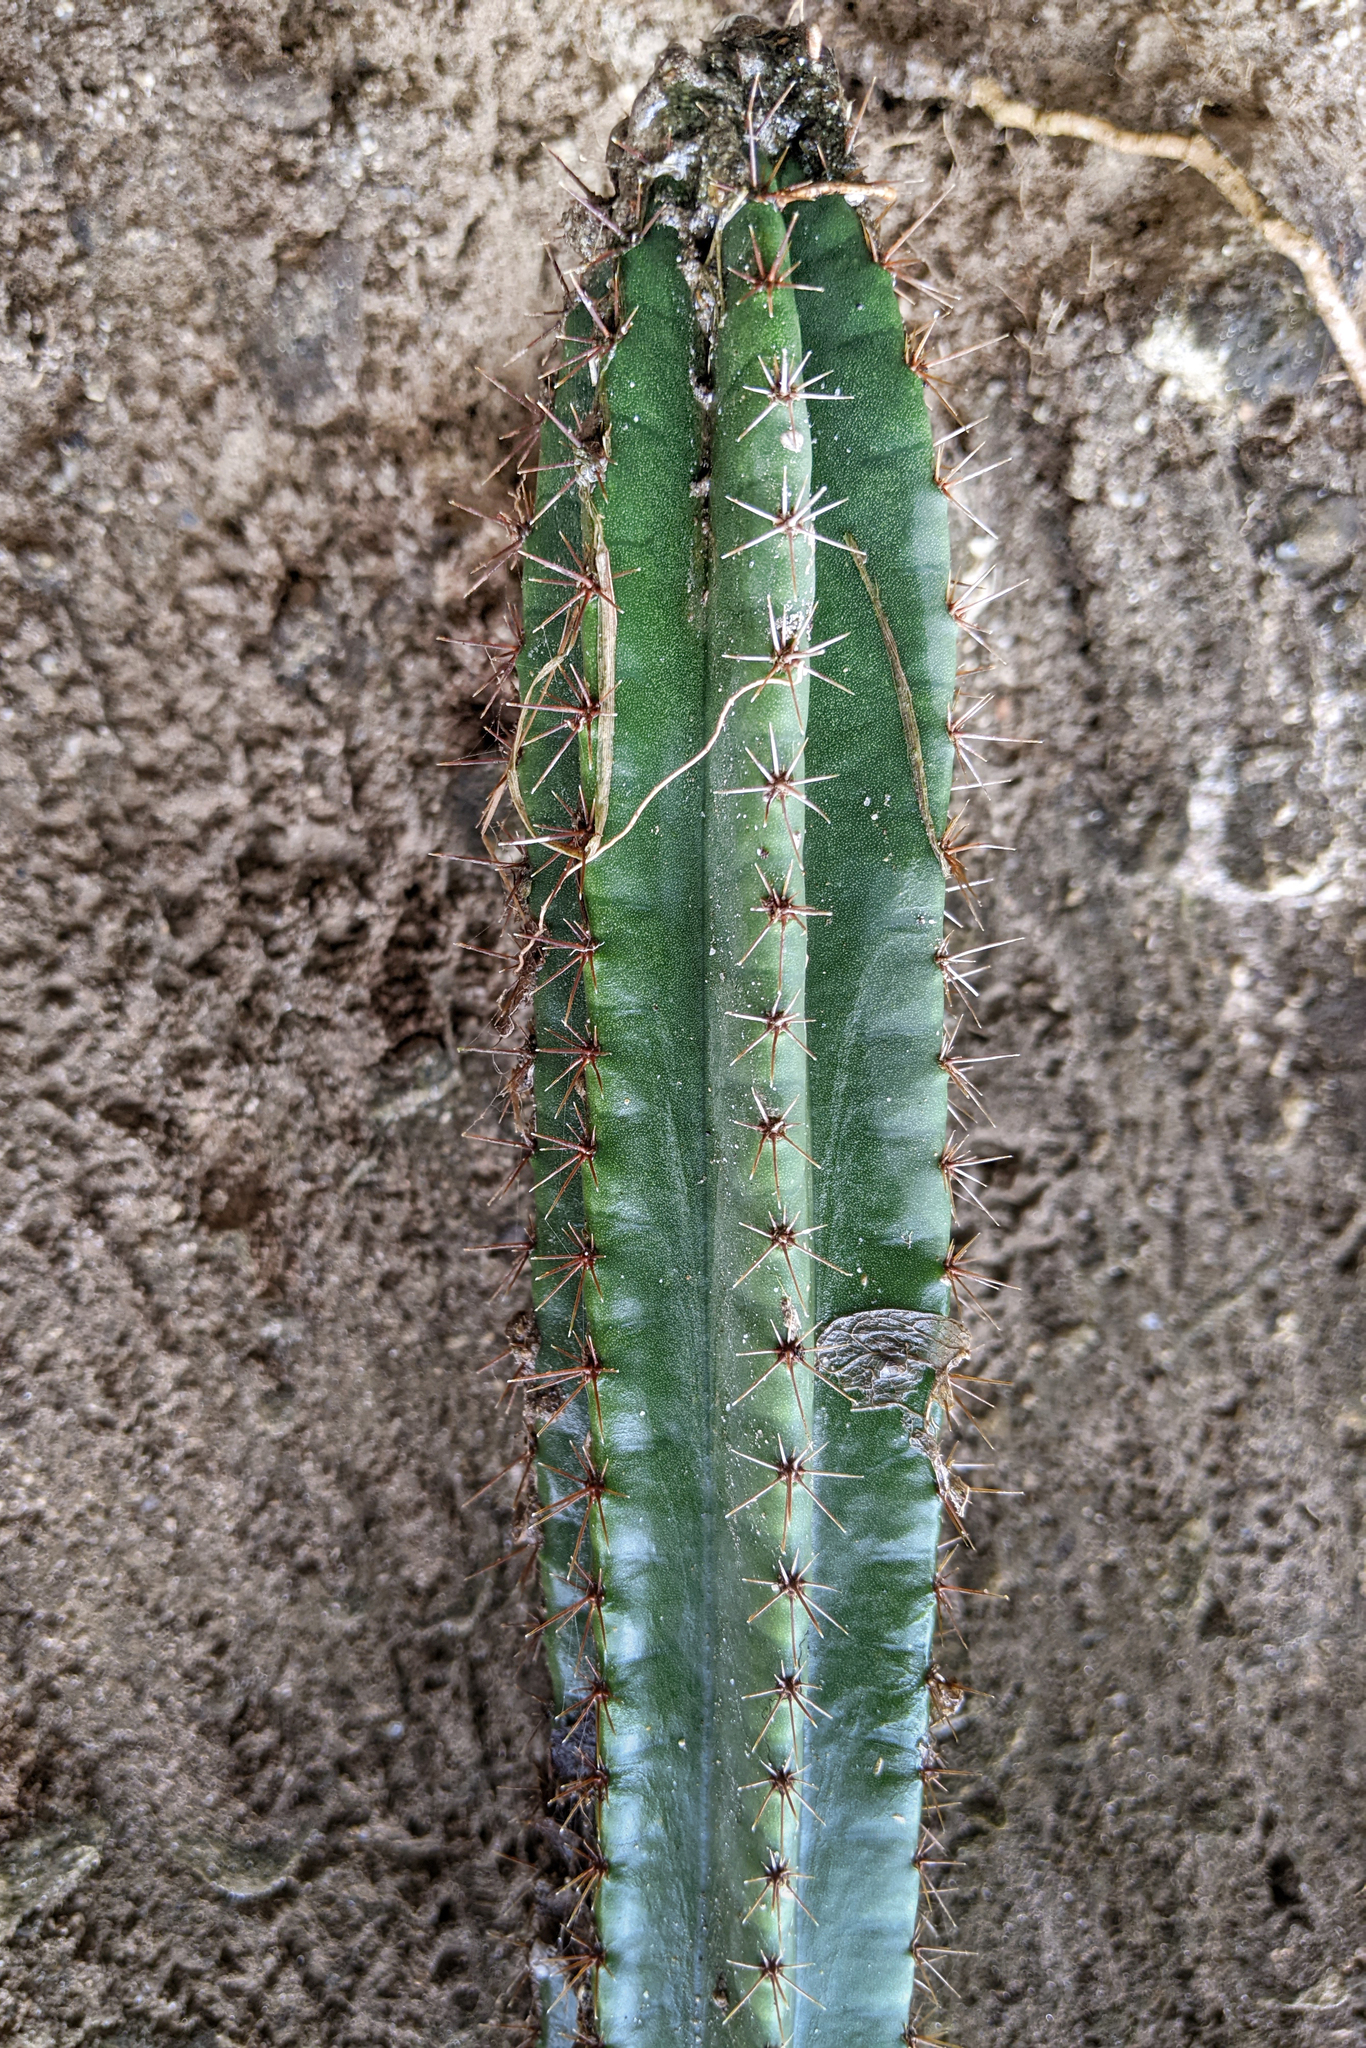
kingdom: Plantae
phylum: Tracheophyta
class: Magnoliopsida
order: Caryophyllales
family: Cactaceae
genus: Pilosocereus
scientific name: Pilosocereus curtisii
